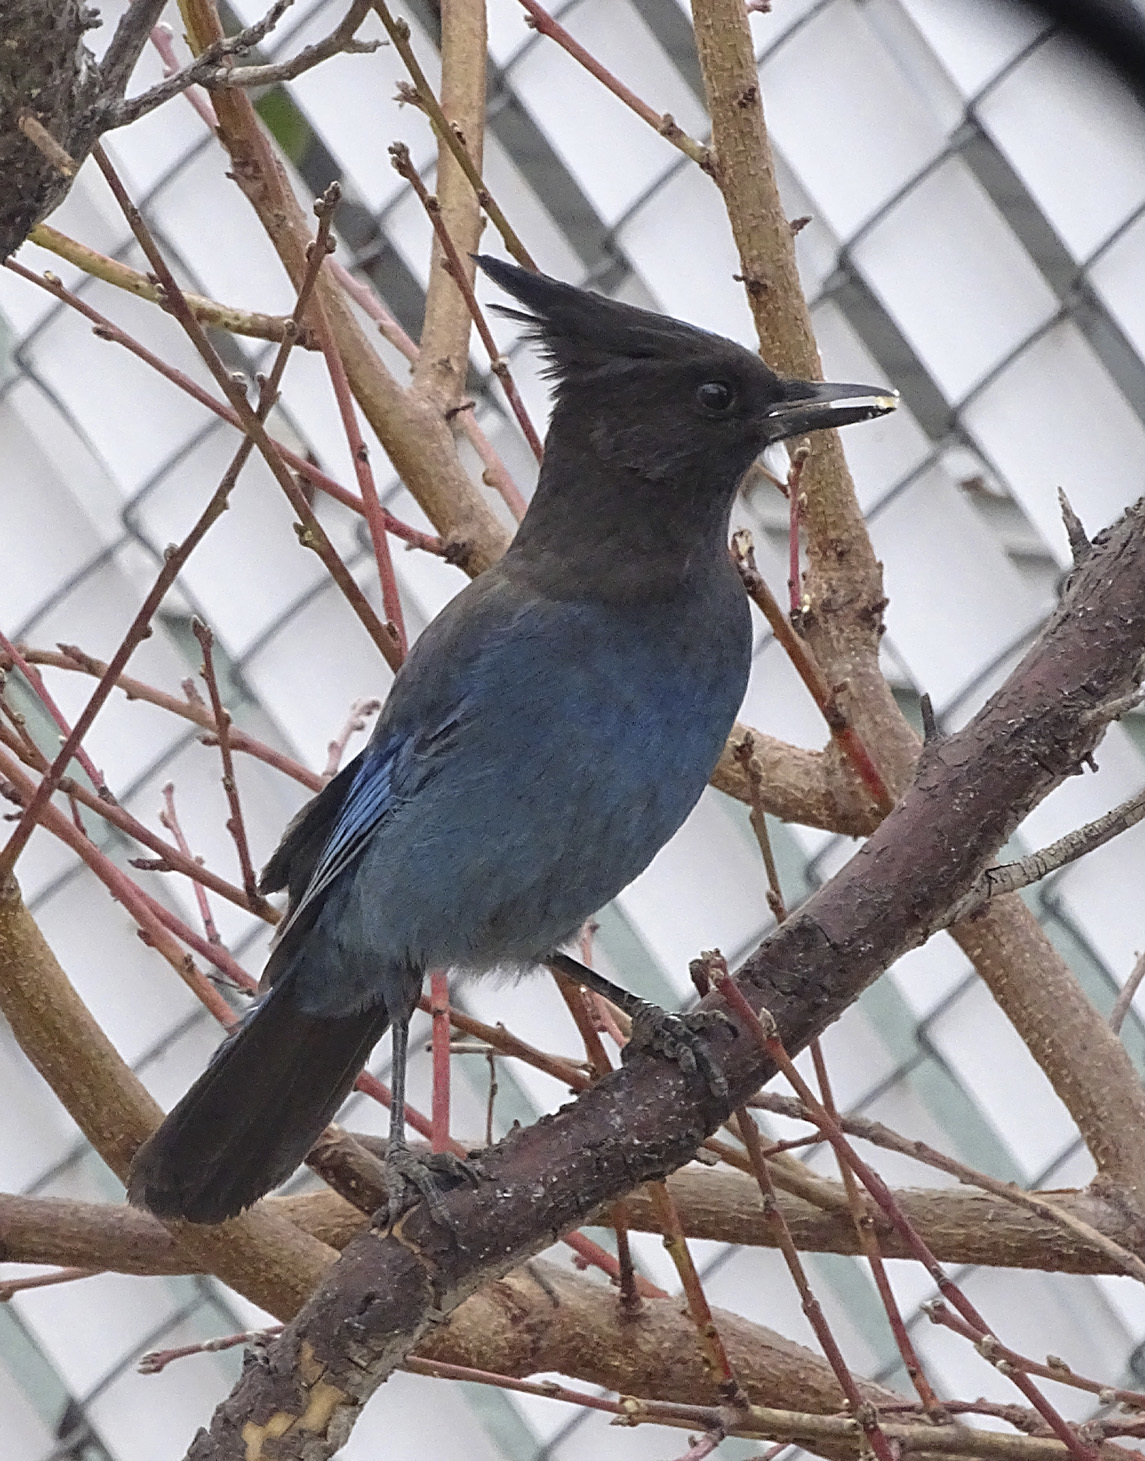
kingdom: Animalia
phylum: Chordata
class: Aves
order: Passeriformes
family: Corvidae
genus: Cyanocitta
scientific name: Cyanocitta stelleri
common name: Steller's jay
